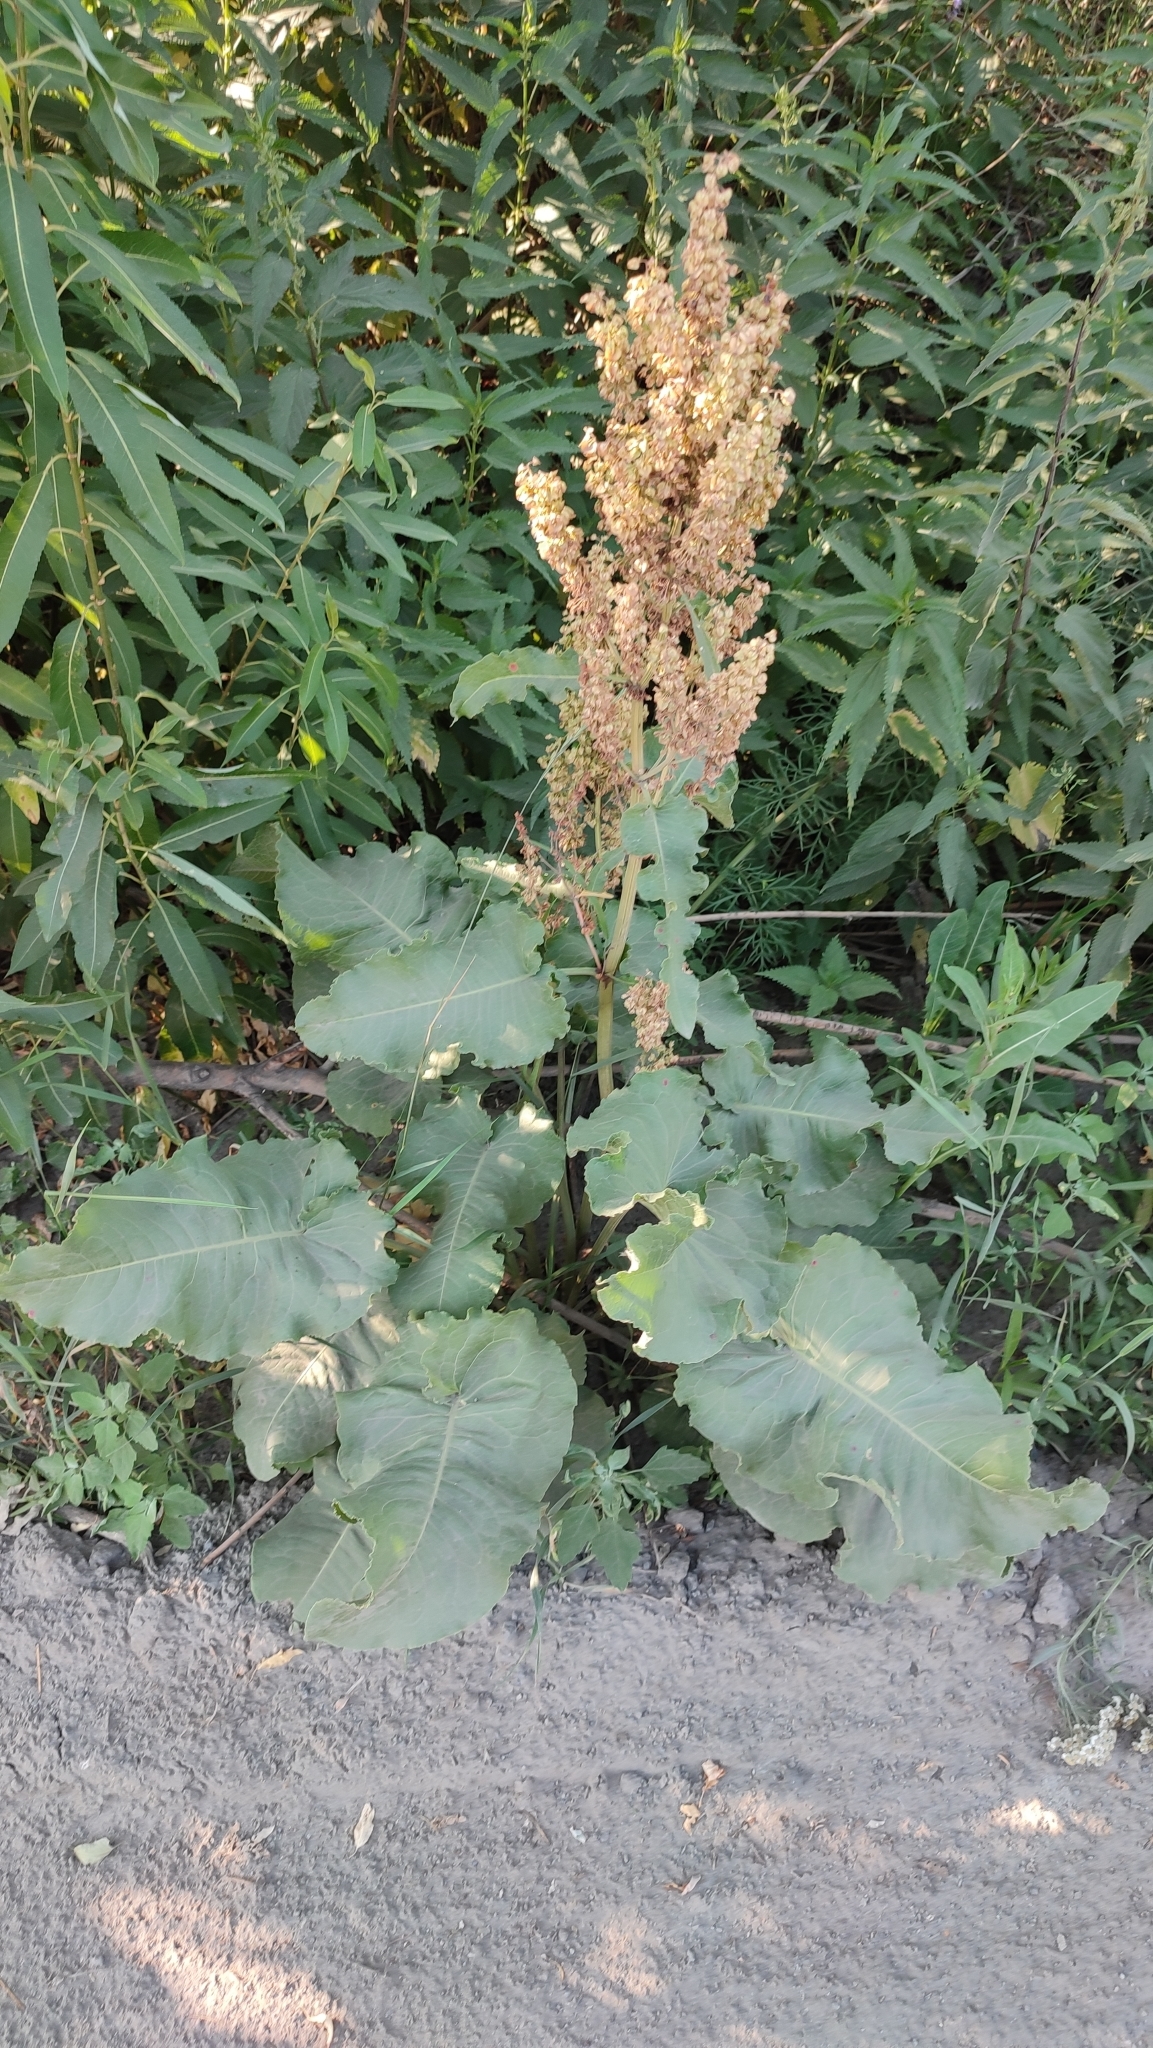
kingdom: Plantae
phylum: Tracheophyta
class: Magnoliopsida
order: Caryophyllales
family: Polygonaceae
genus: Rumex
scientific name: Rumex confertus
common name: Russian dock
